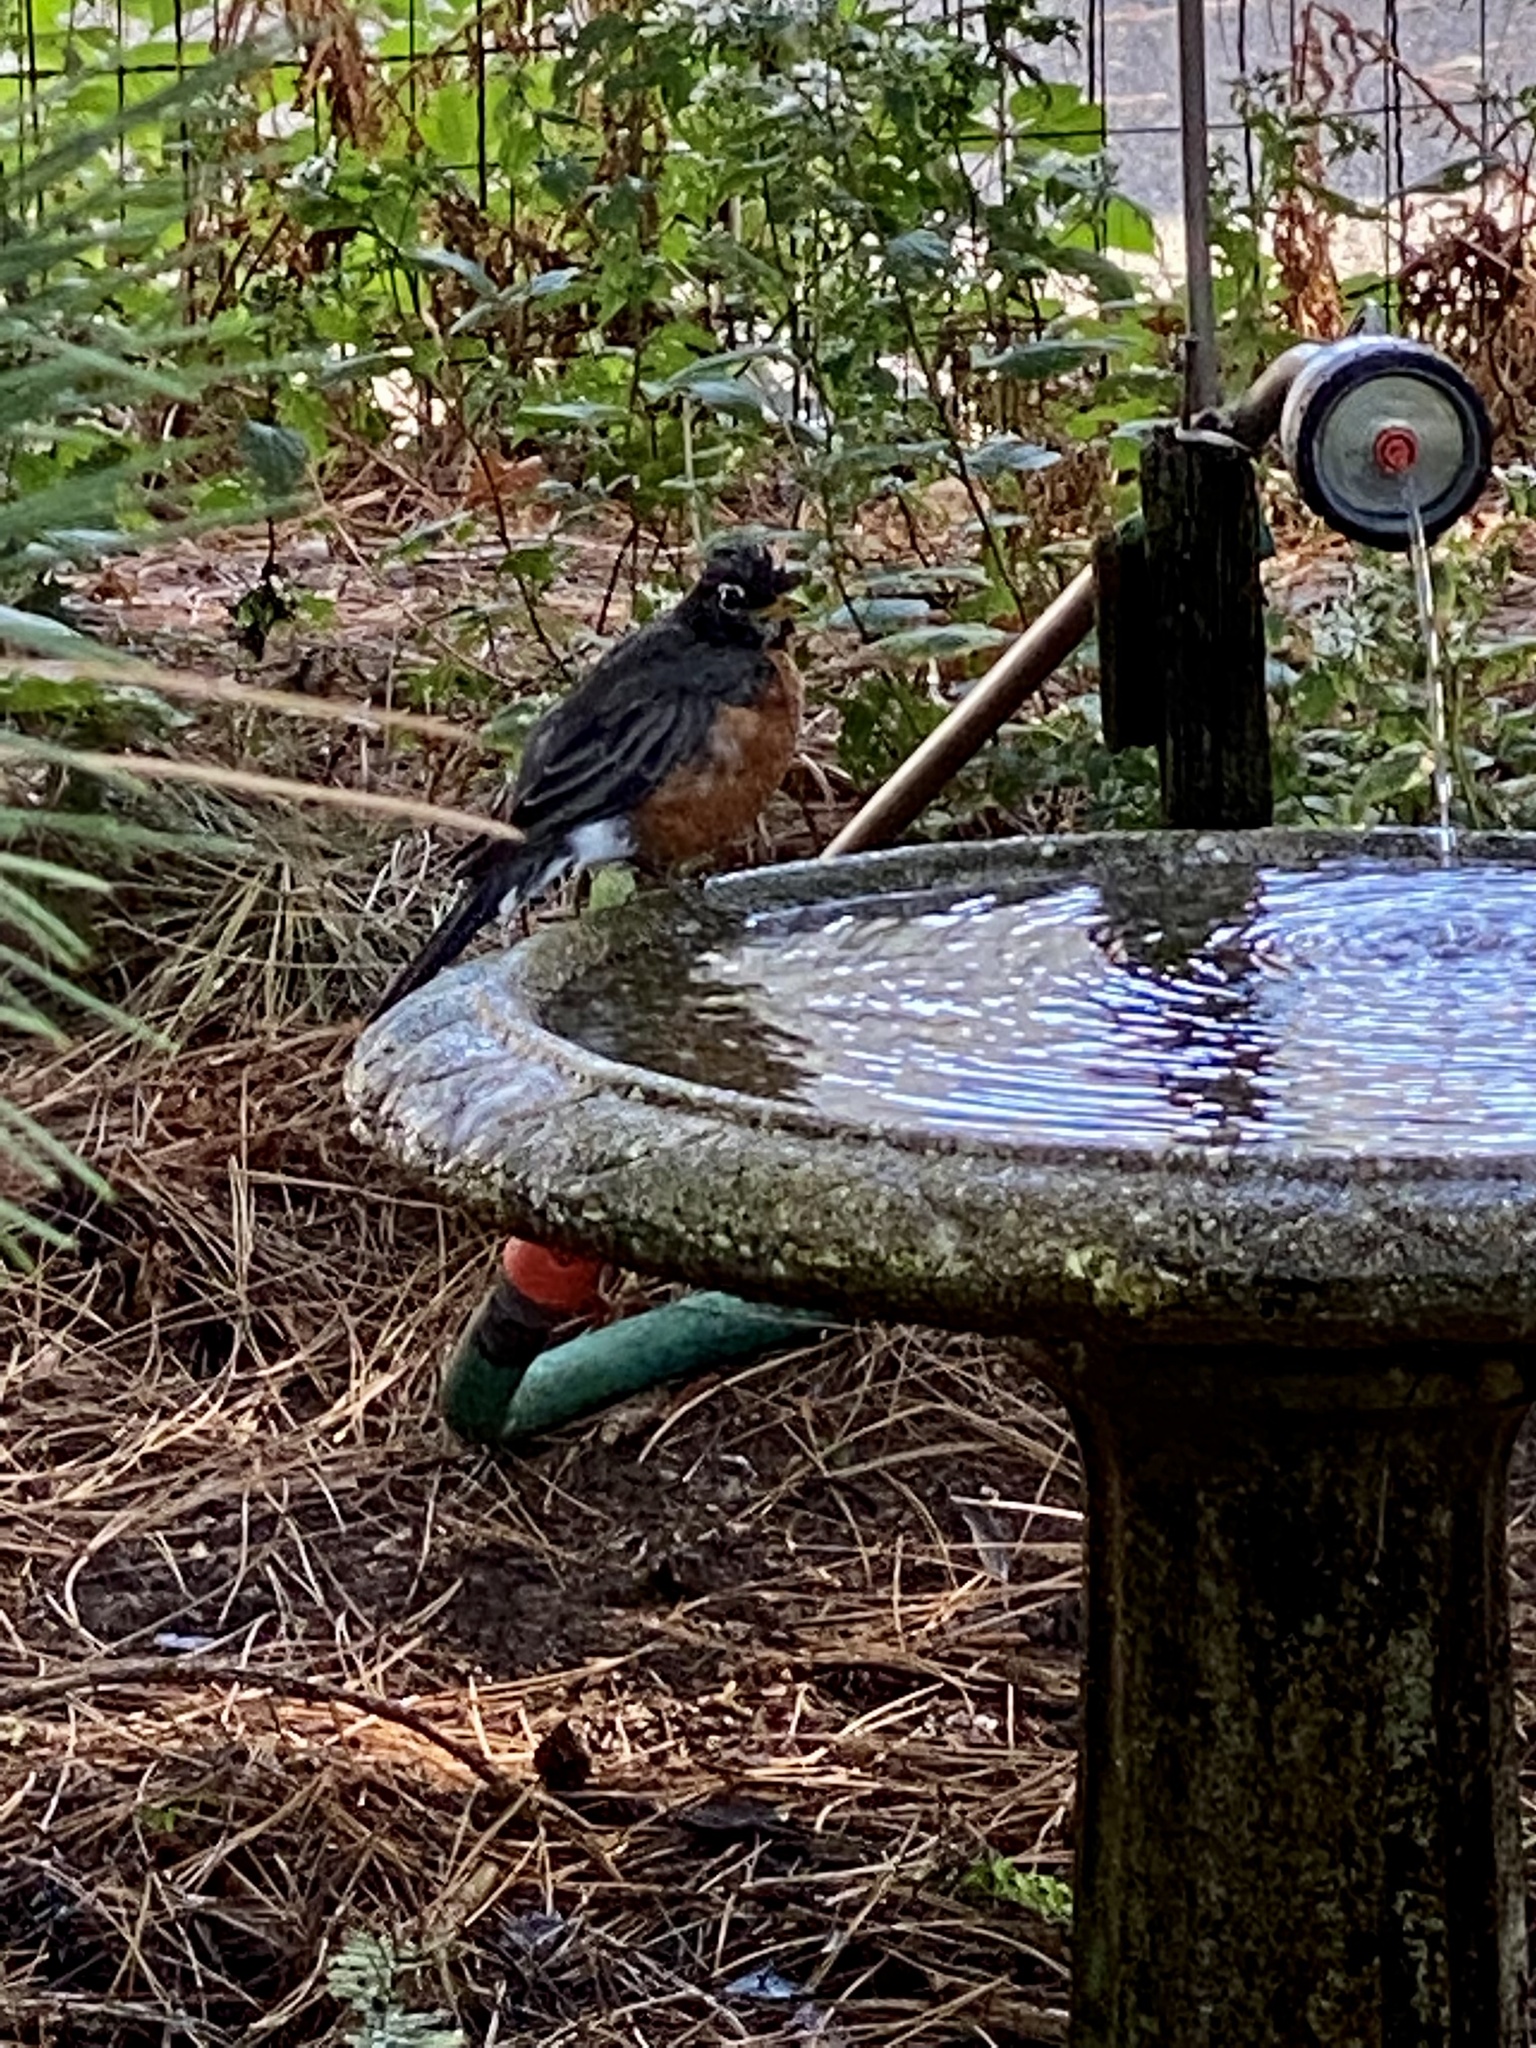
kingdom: Animalia
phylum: Chordata
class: Aves
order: Passeriformes
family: Turdidae
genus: Turdus
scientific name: Turdus migratorius
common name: American robin
